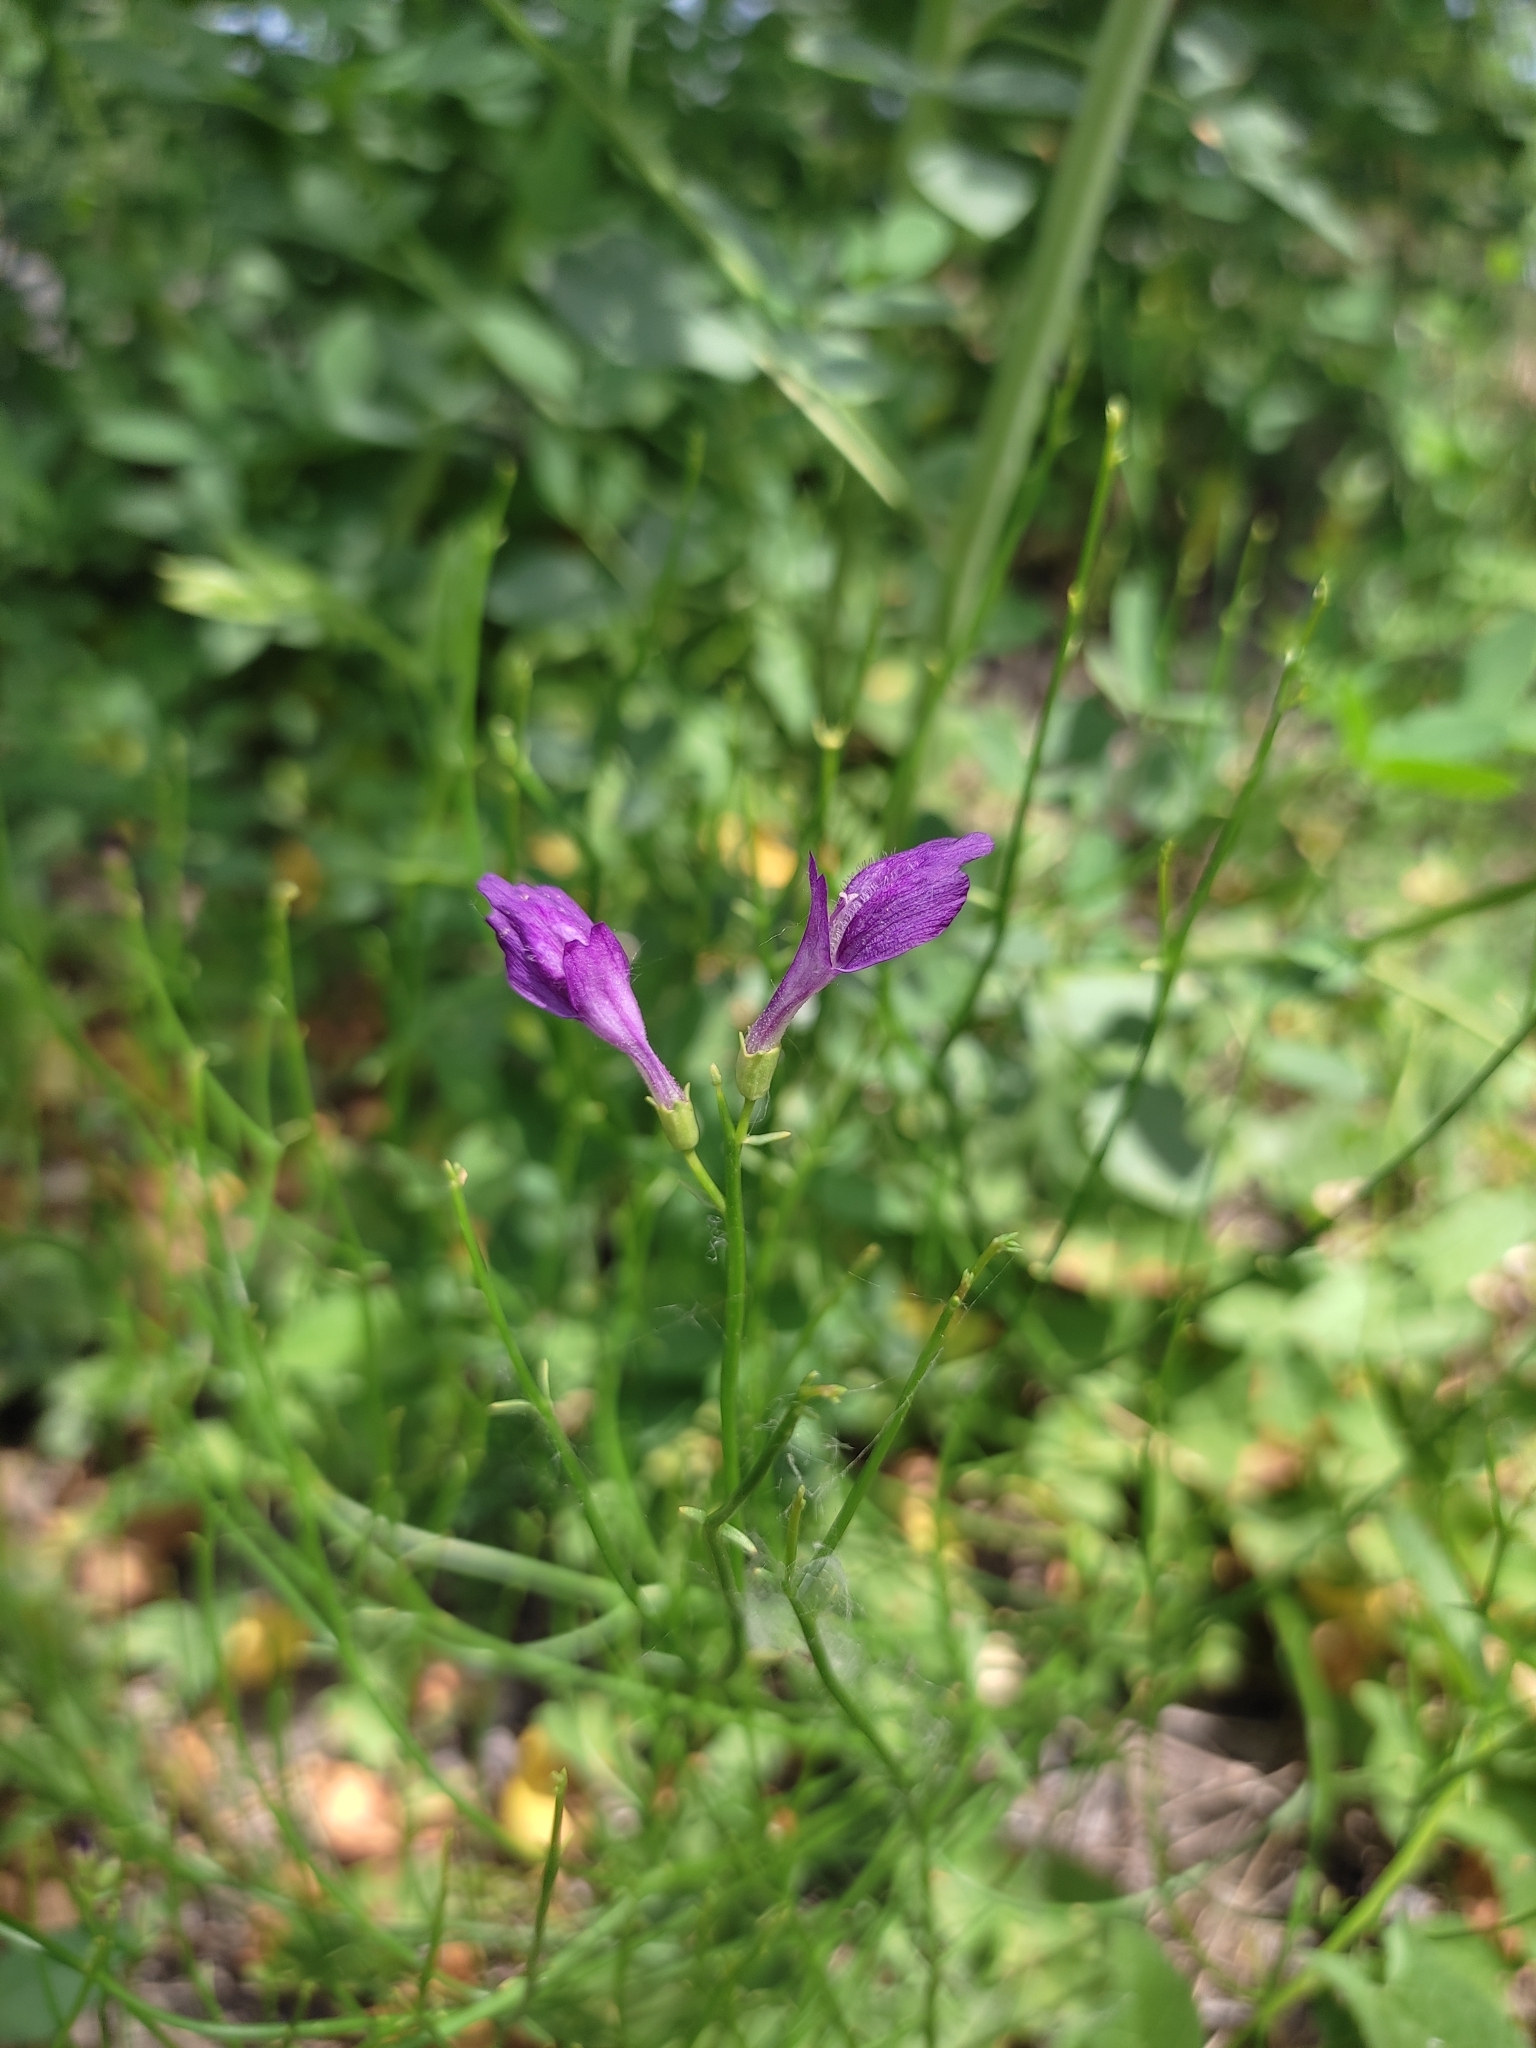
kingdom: Plantae
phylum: Tracheophyta
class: Magnoliopsida
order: Lamiales
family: Mazaceae
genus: Dodartia
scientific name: Dodartia orientalis
